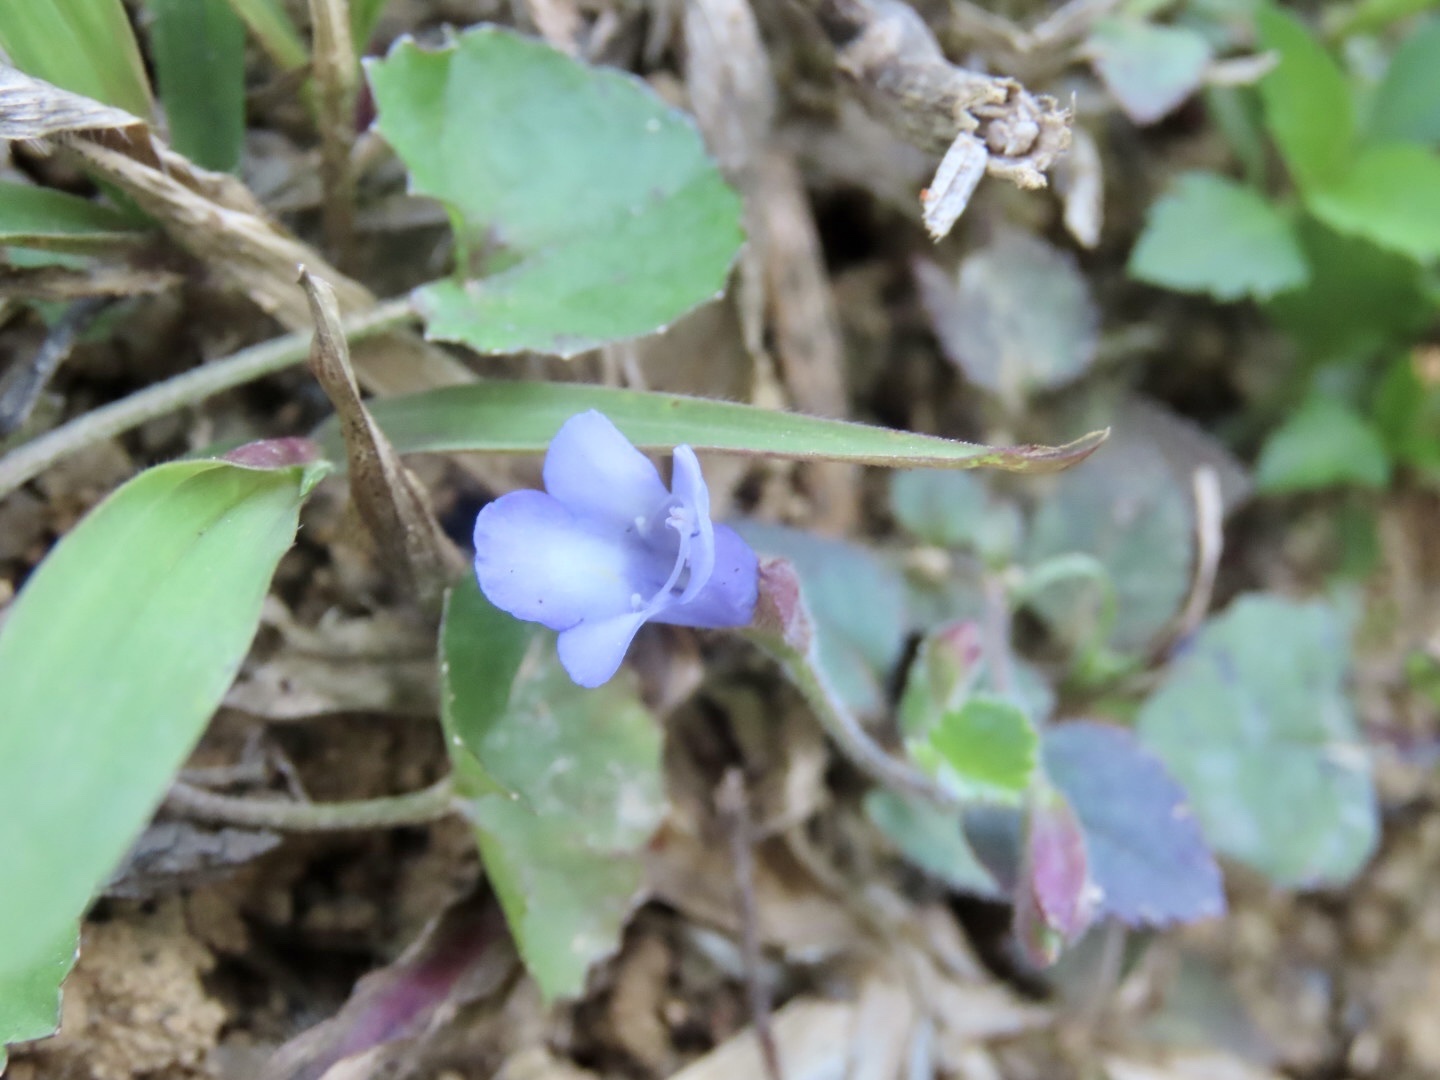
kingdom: Plantae
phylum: Tracheophyta
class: Magnoliopsida
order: Lamiales
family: Linderniaceae
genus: Torenia
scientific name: Torenia benthamiana
